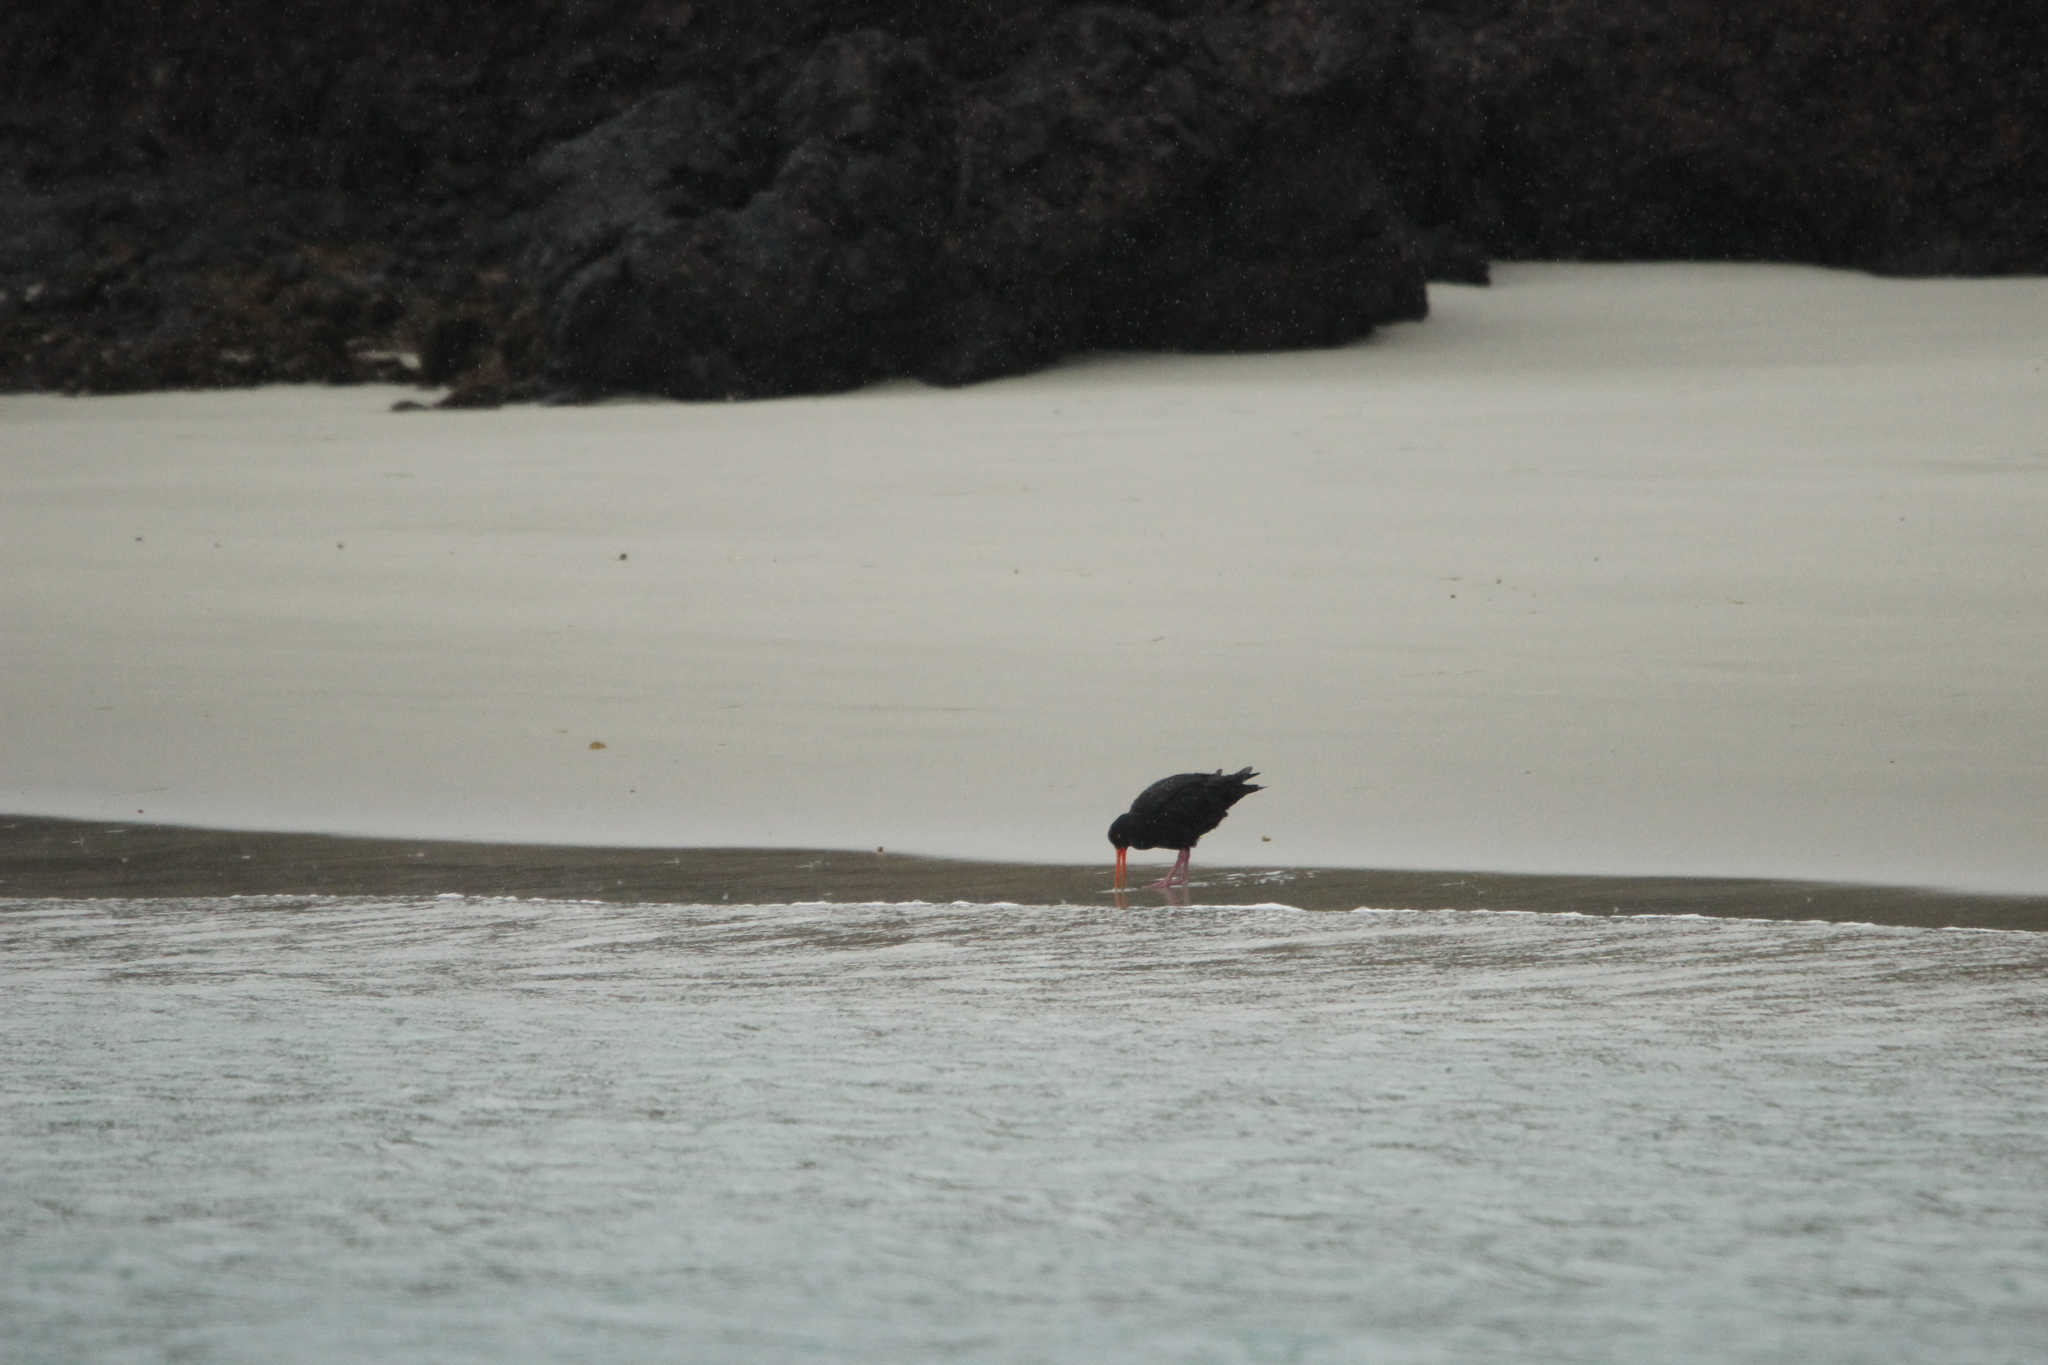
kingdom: Animalia
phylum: Chordata
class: Aves
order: Charadriiformes
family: Haematopodidae
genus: Haematopus
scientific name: Haematopus unicolor
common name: Variable oystercatcher
